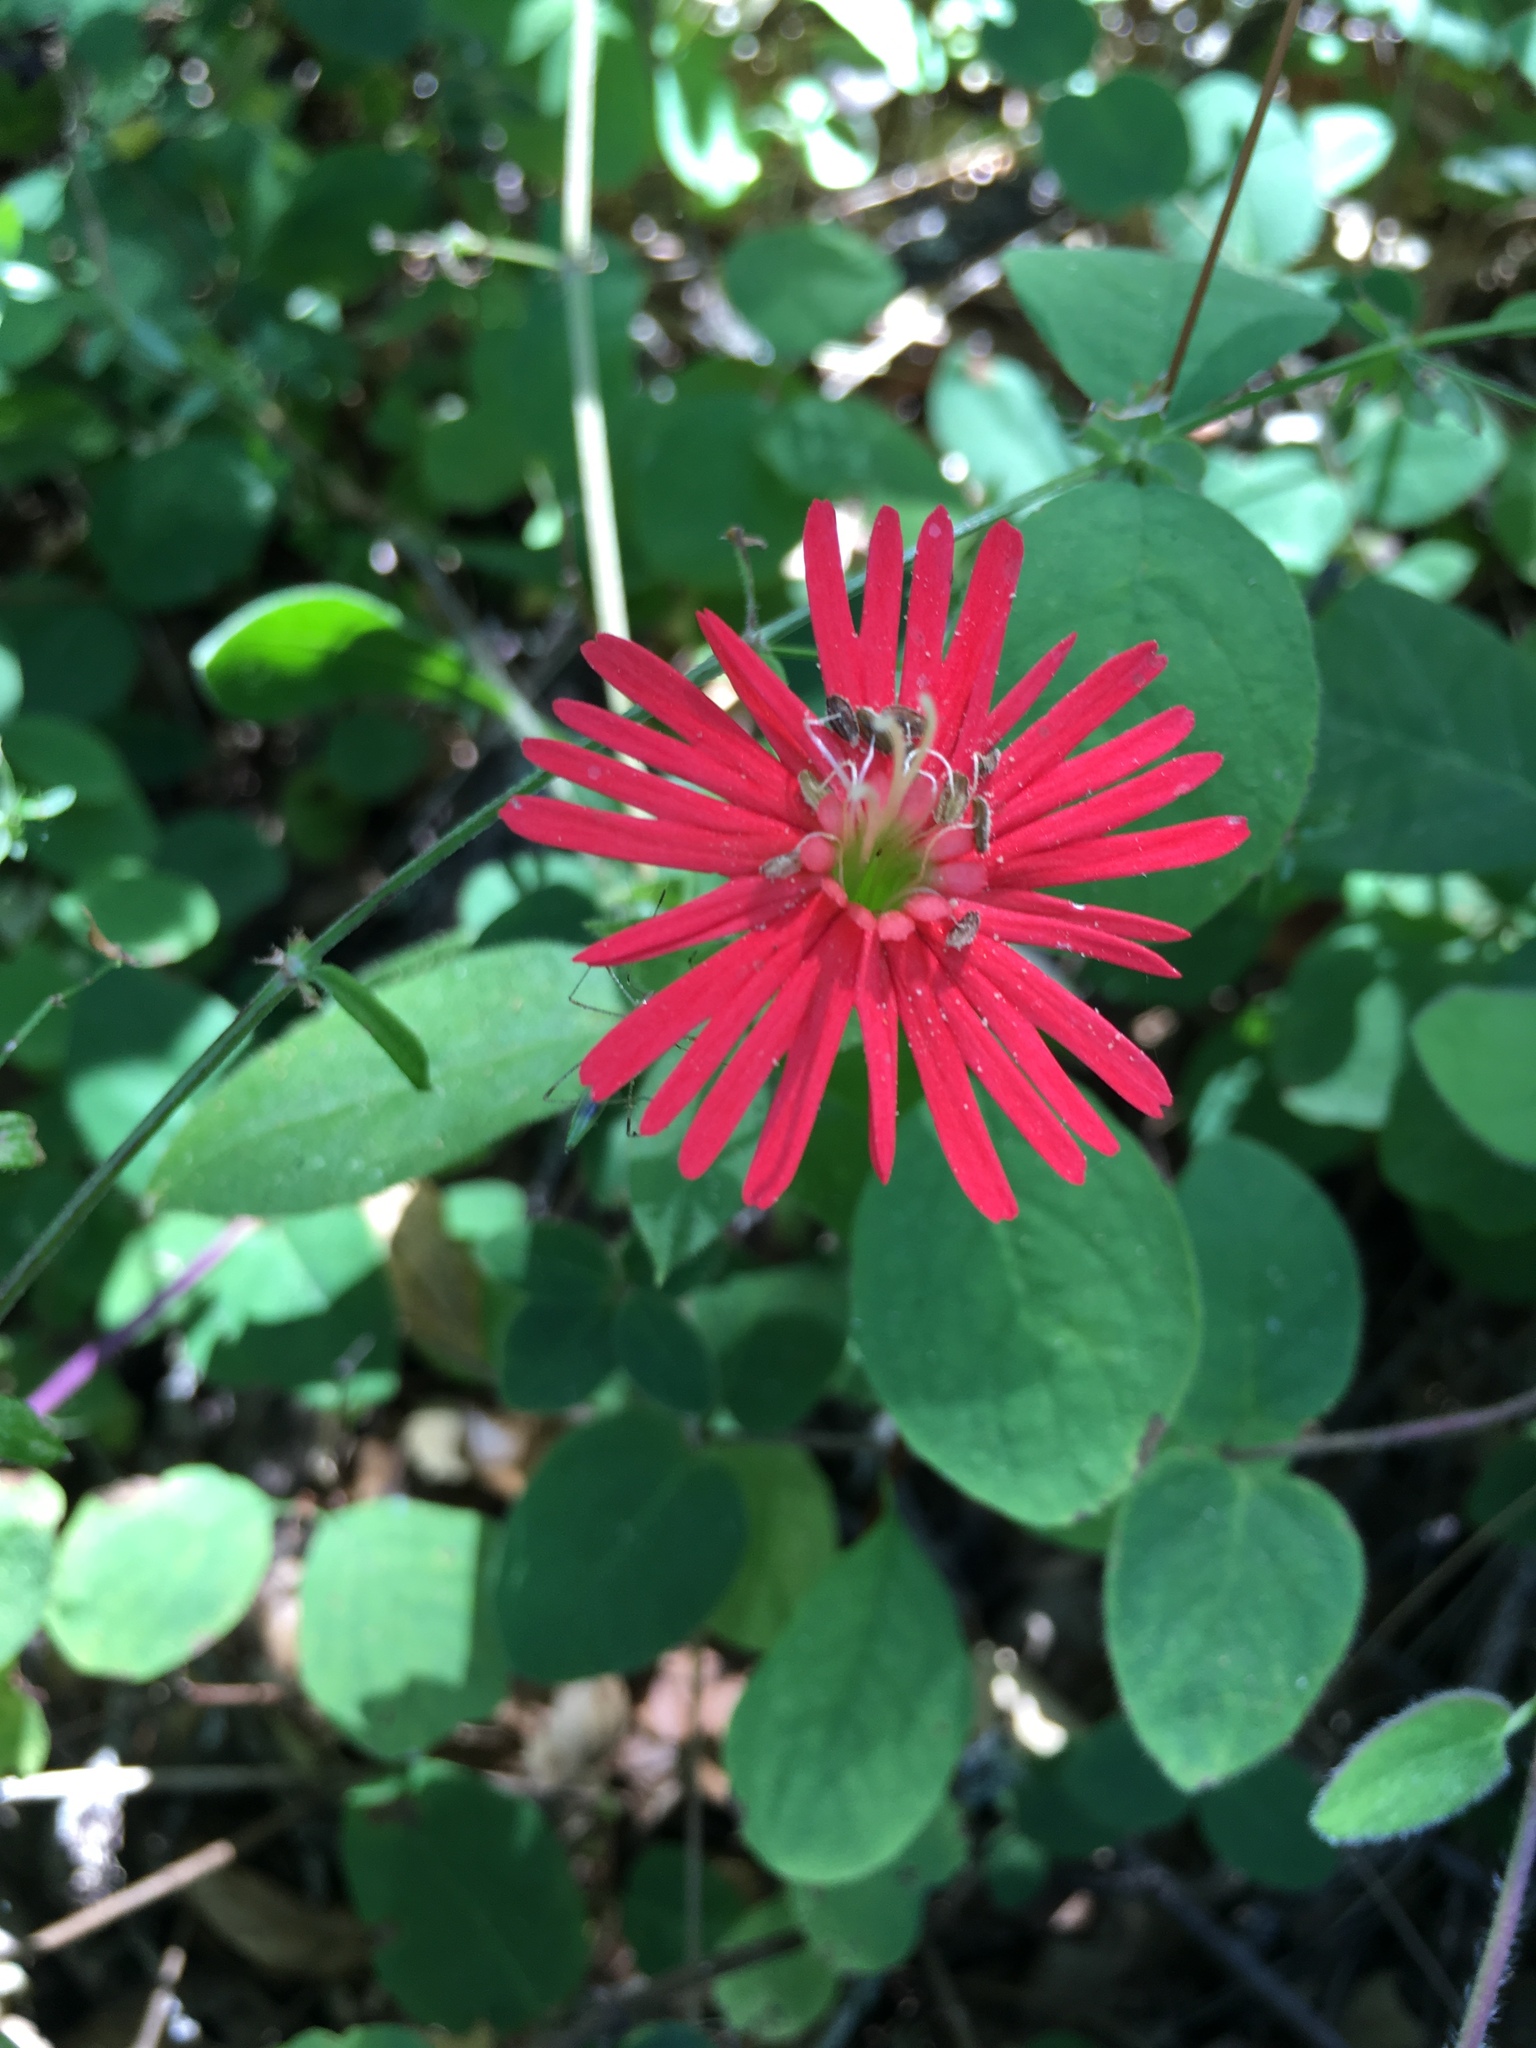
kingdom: Plantae
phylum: Tracheophyta
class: Magnoliopsida
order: Caryophyllales
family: Caryophyllaceae
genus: Silene
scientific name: Silene laciniata
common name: Indian-pink
